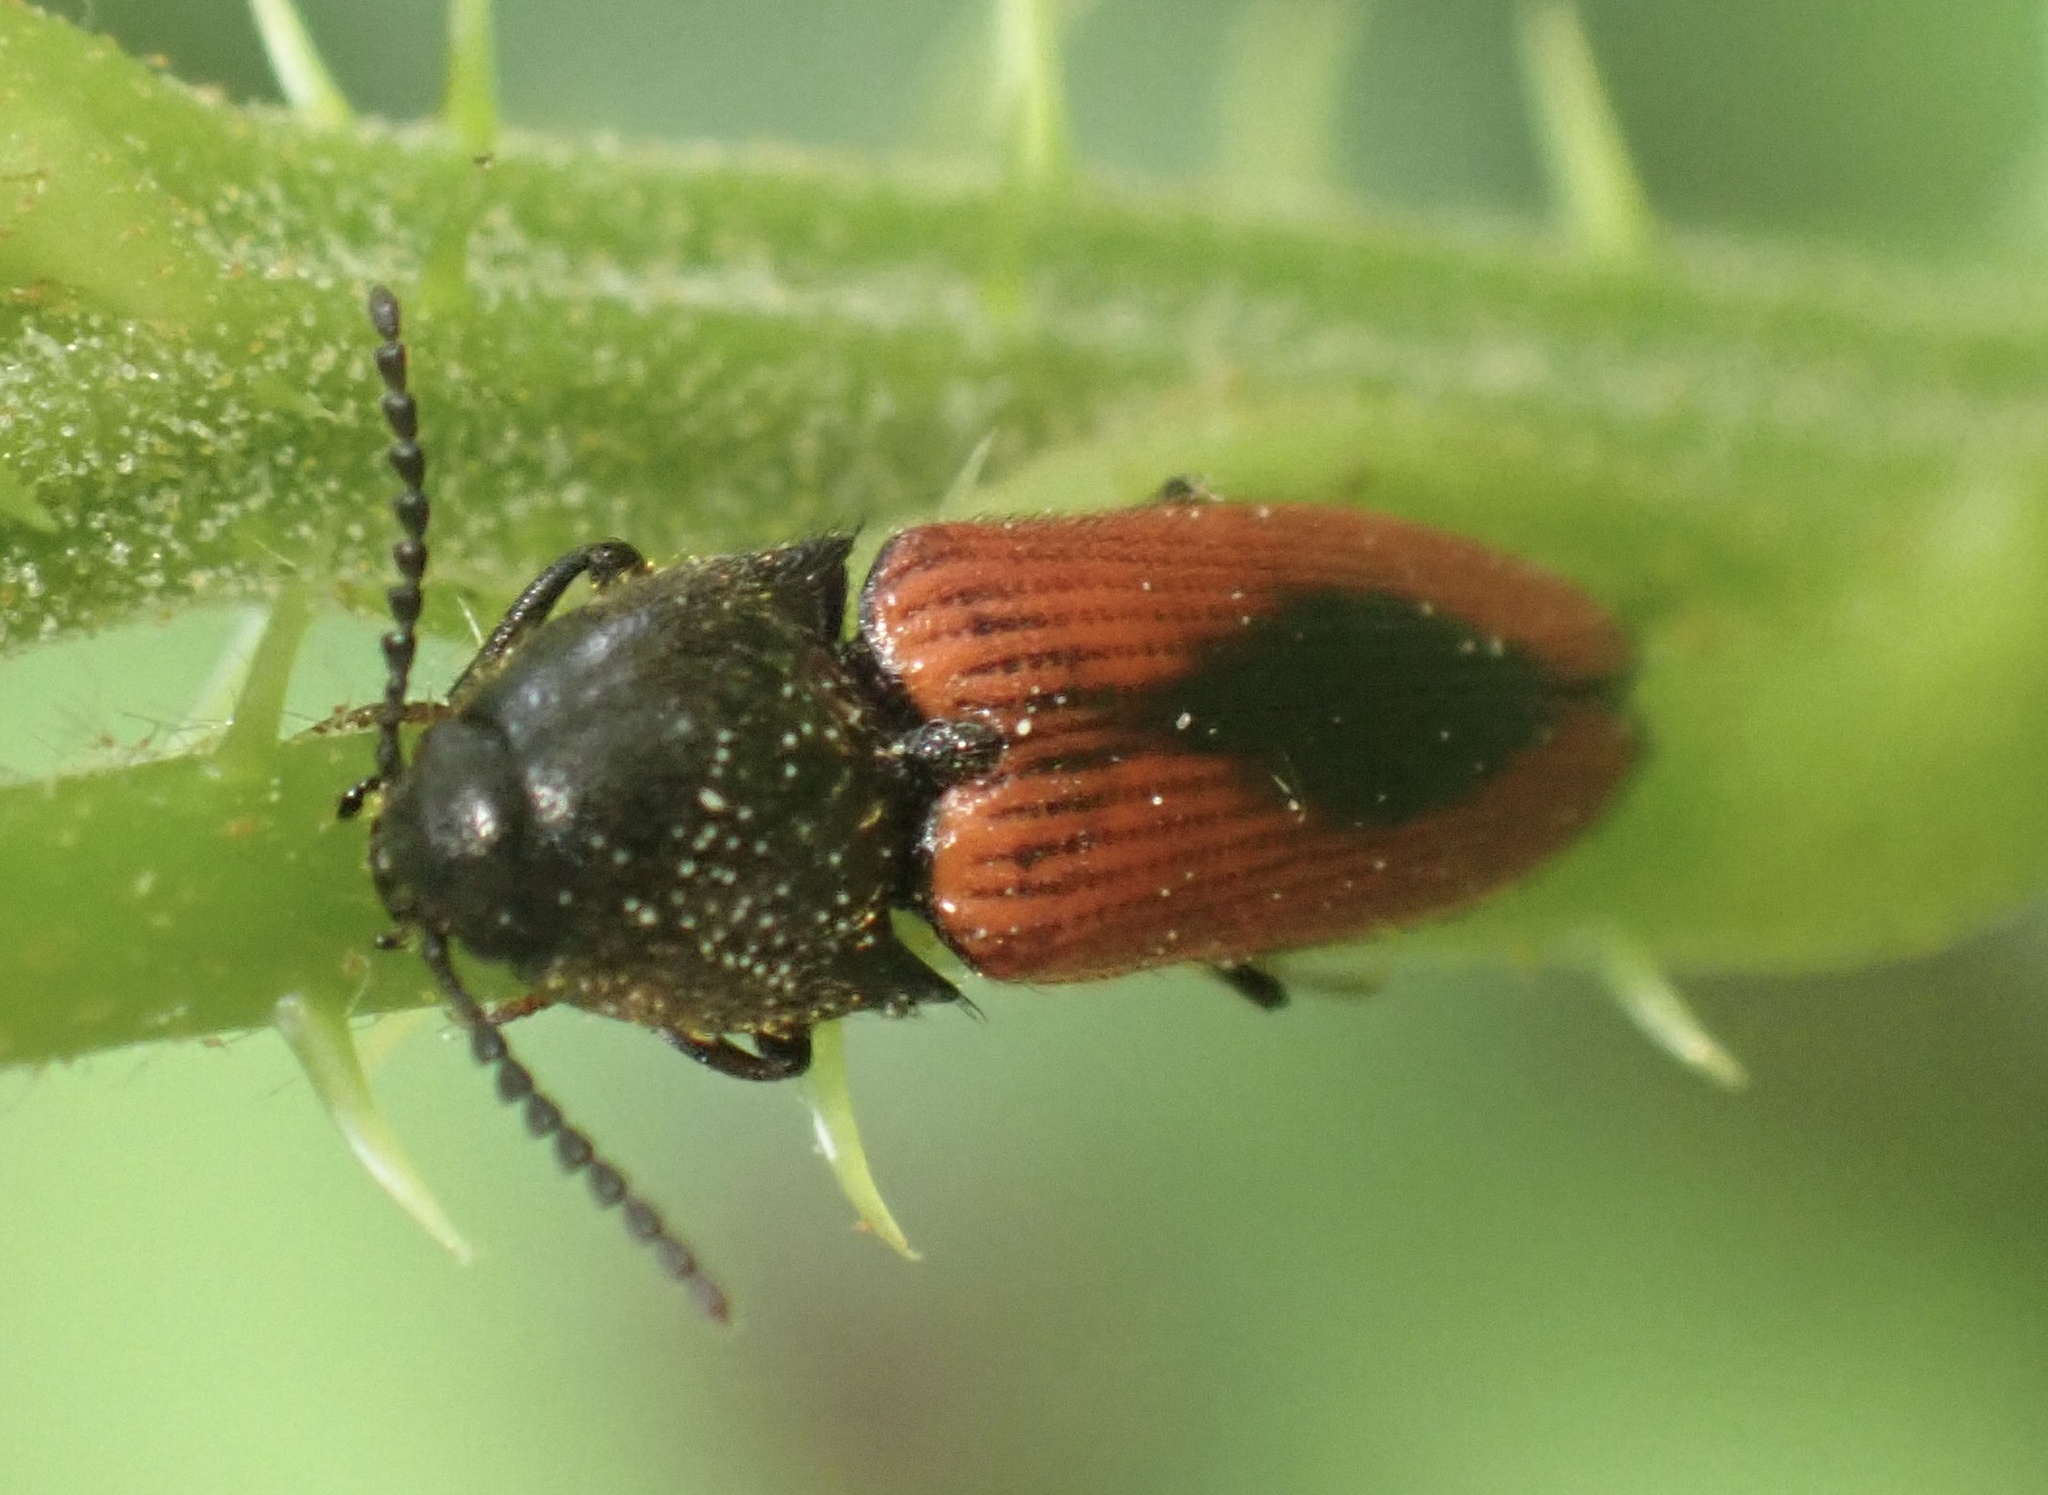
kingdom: Animalia
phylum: Arthropoda
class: Insecta
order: Coleoptera
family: Elateridae
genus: Ampedus
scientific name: Ampedus sanguinolentus
